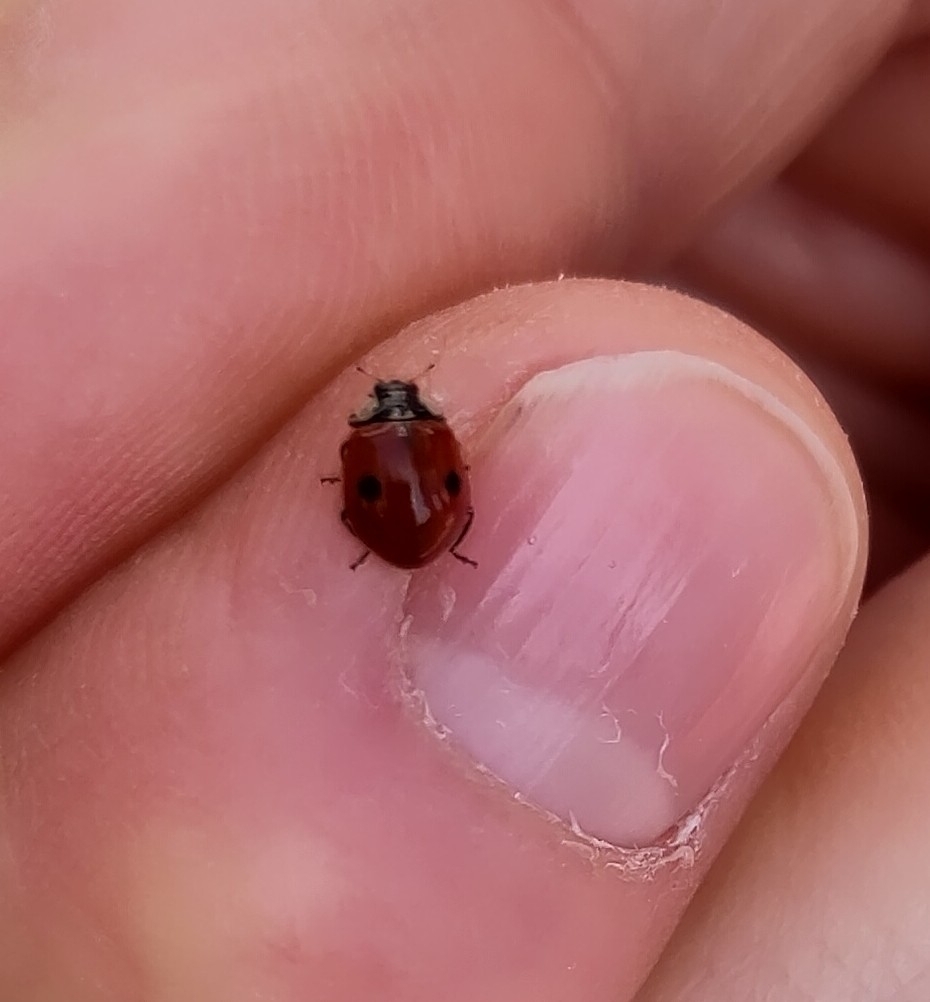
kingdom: Animalia
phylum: Arthropoda
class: Insecta
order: Coleoptera
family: Coccinellidae
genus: Adalia
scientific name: Adalia bipunctata
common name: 2-spot ladybird
